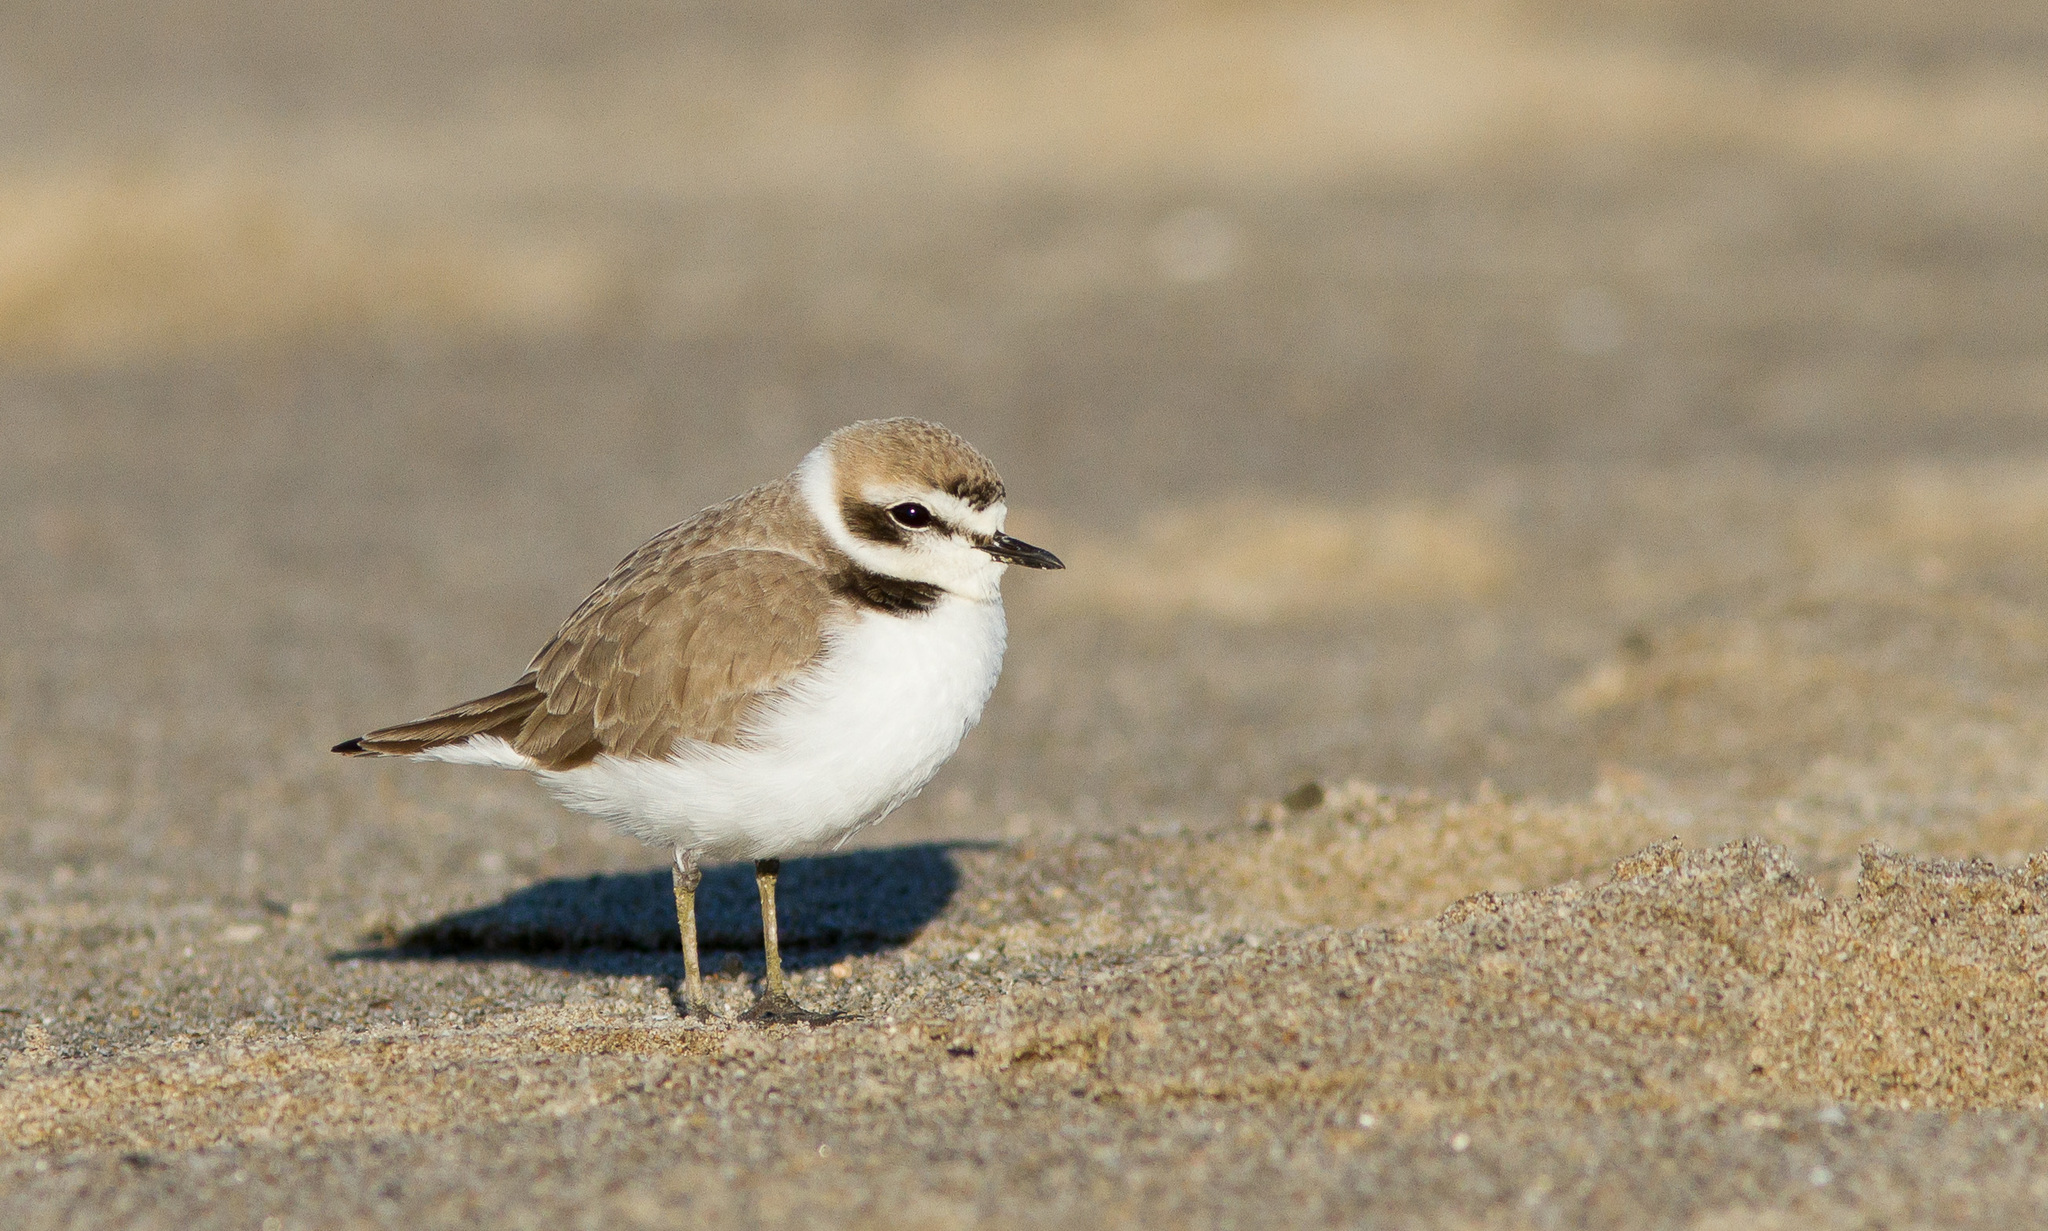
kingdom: Animalia
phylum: Chordata
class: Aves
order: Charadriiformes
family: Charadriidae
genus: Anarhynchus
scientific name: Anarhynchus
